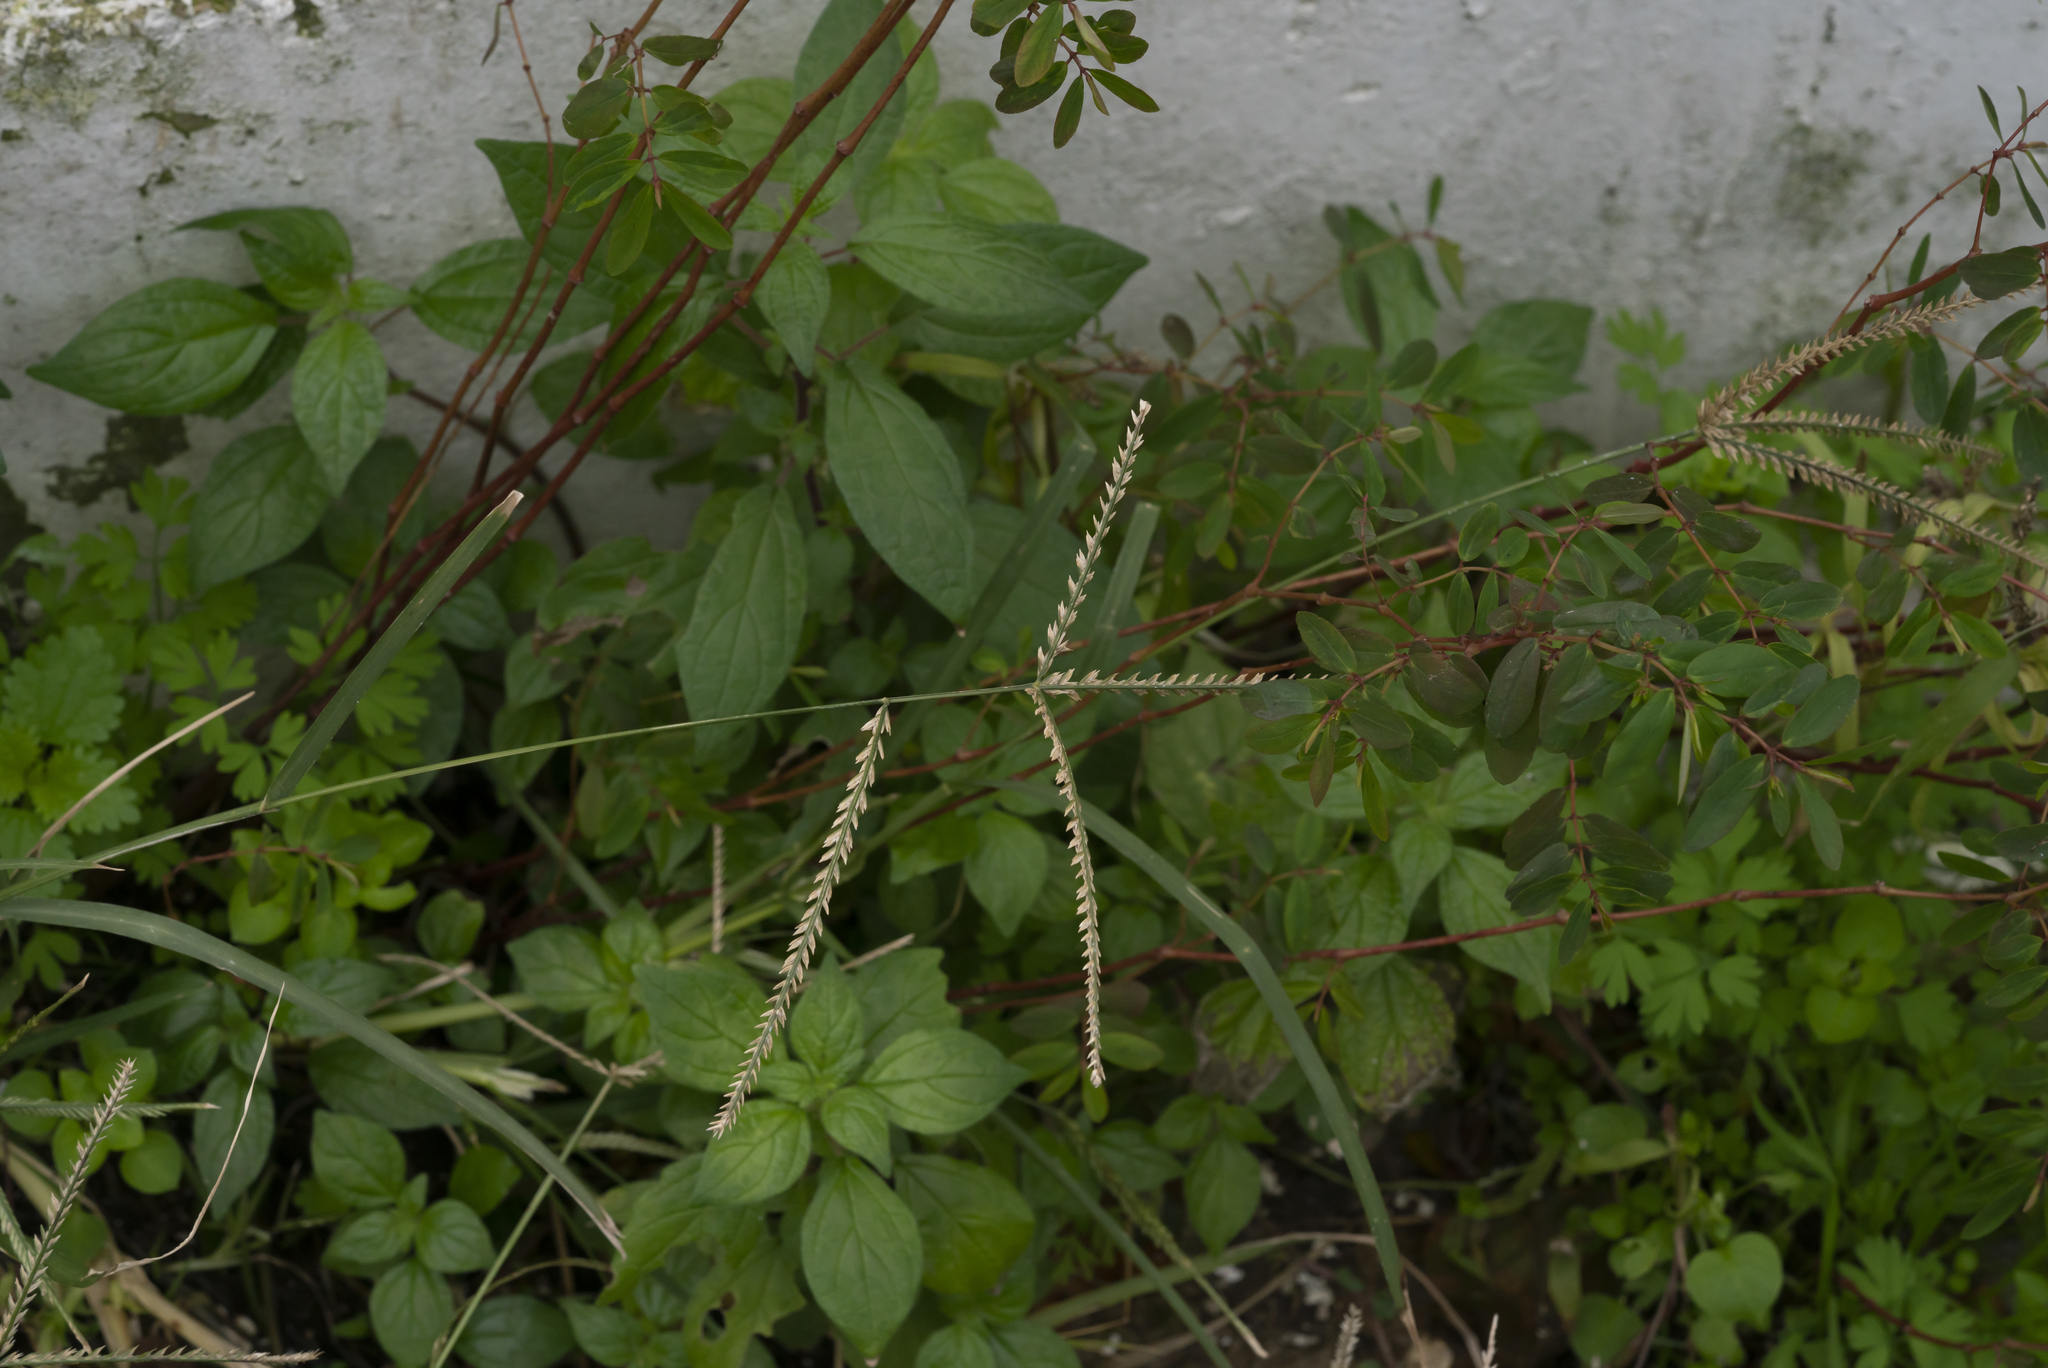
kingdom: Plantae
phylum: Tracheophyta
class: Liliopsida
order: Poales
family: Poaceae
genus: Eleusine
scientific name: Eleusine indica
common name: Yard-grass
